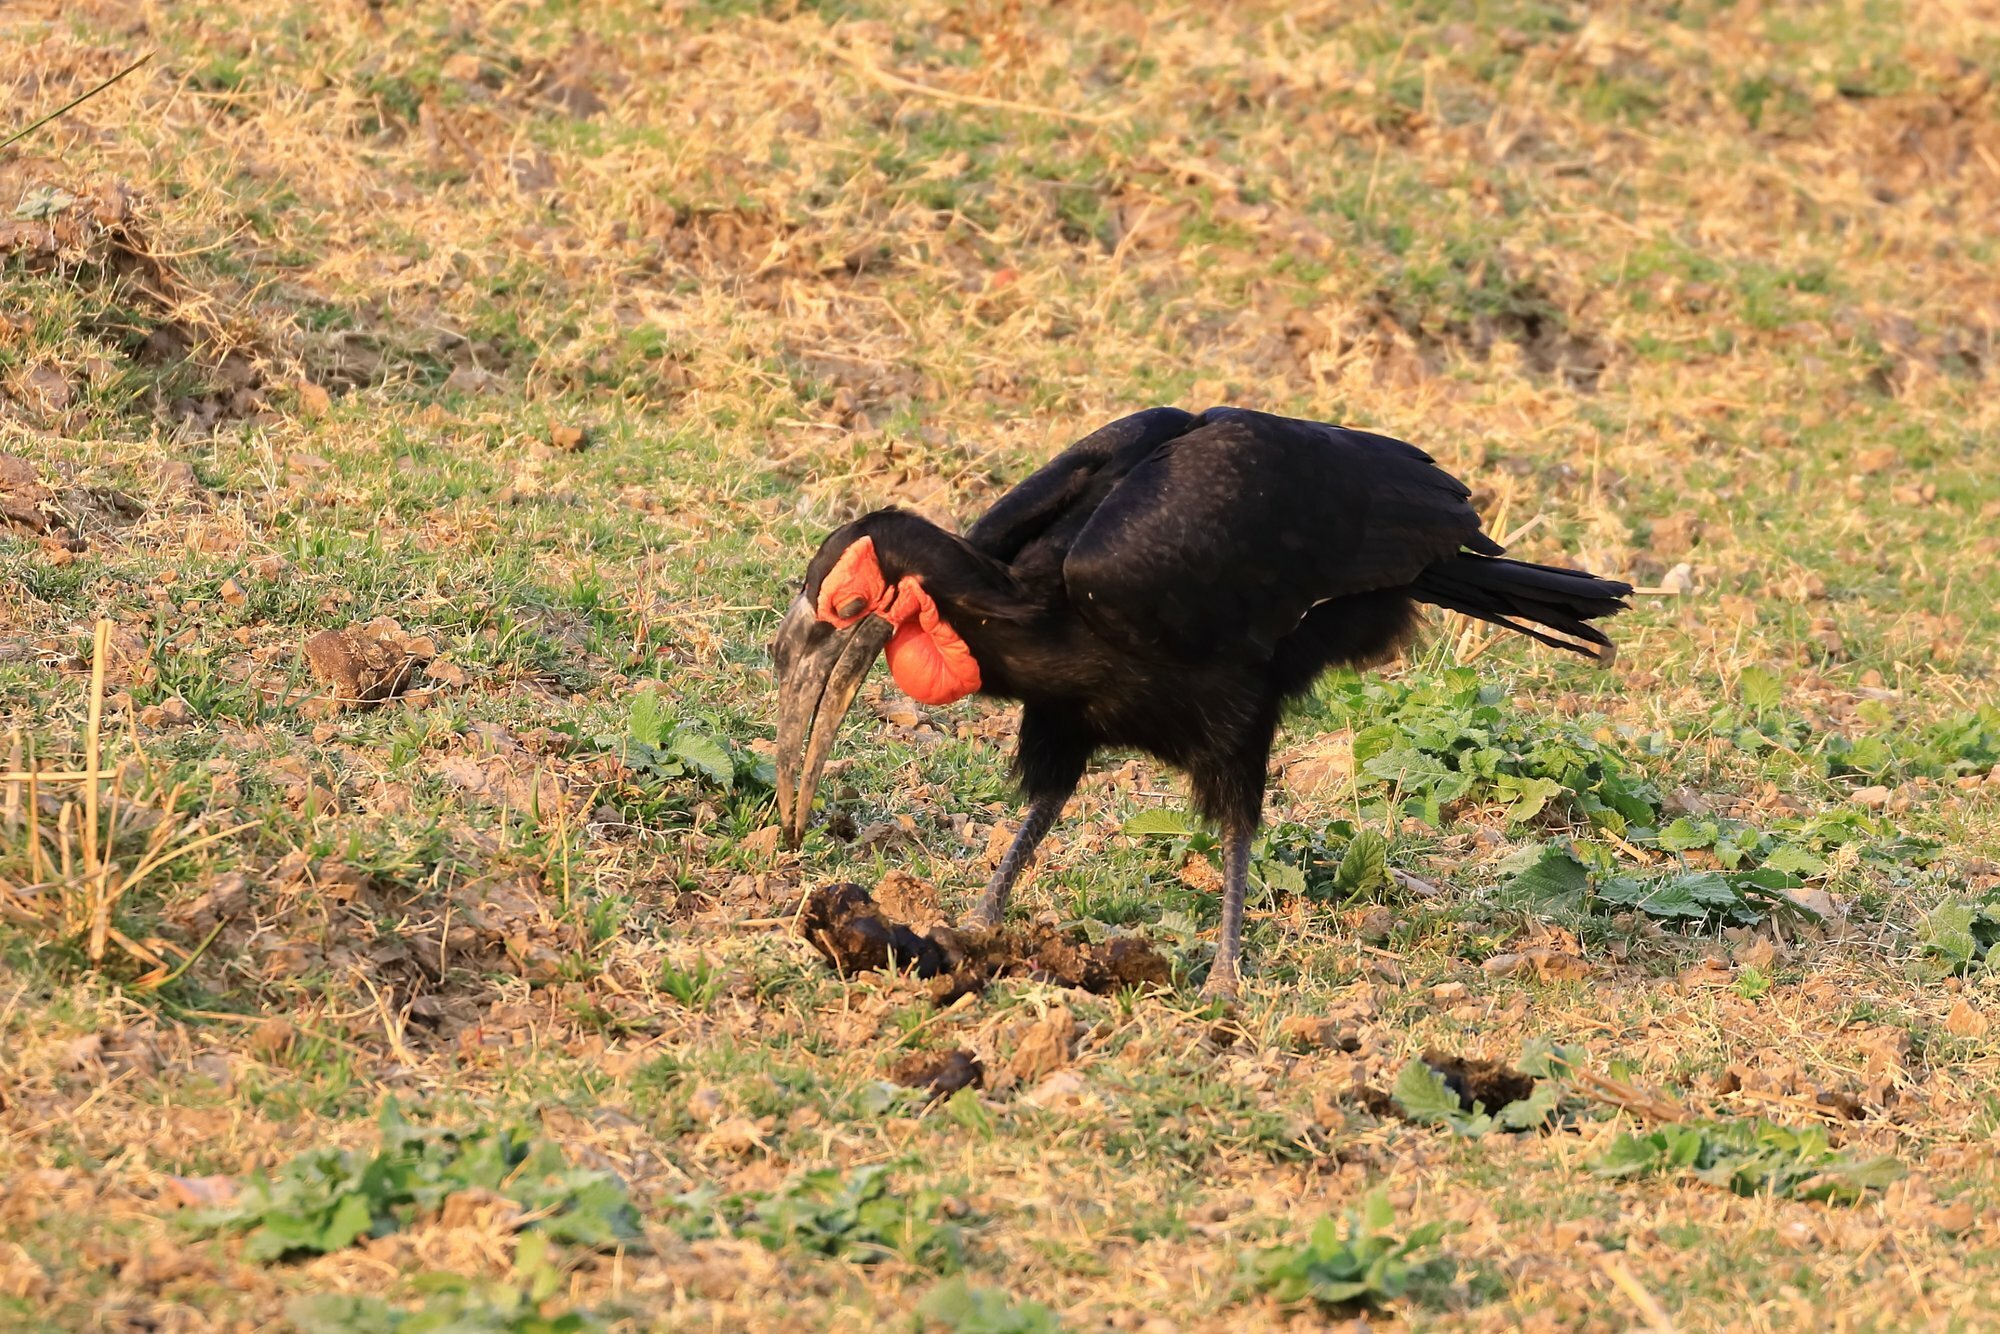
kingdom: Animalia
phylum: Chordata
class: Aves
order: Bucerotiformes
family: Bucorvidae
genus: Bucorvus
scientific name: Bucorvus leadbeateri
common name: Southern ground-hornbill
